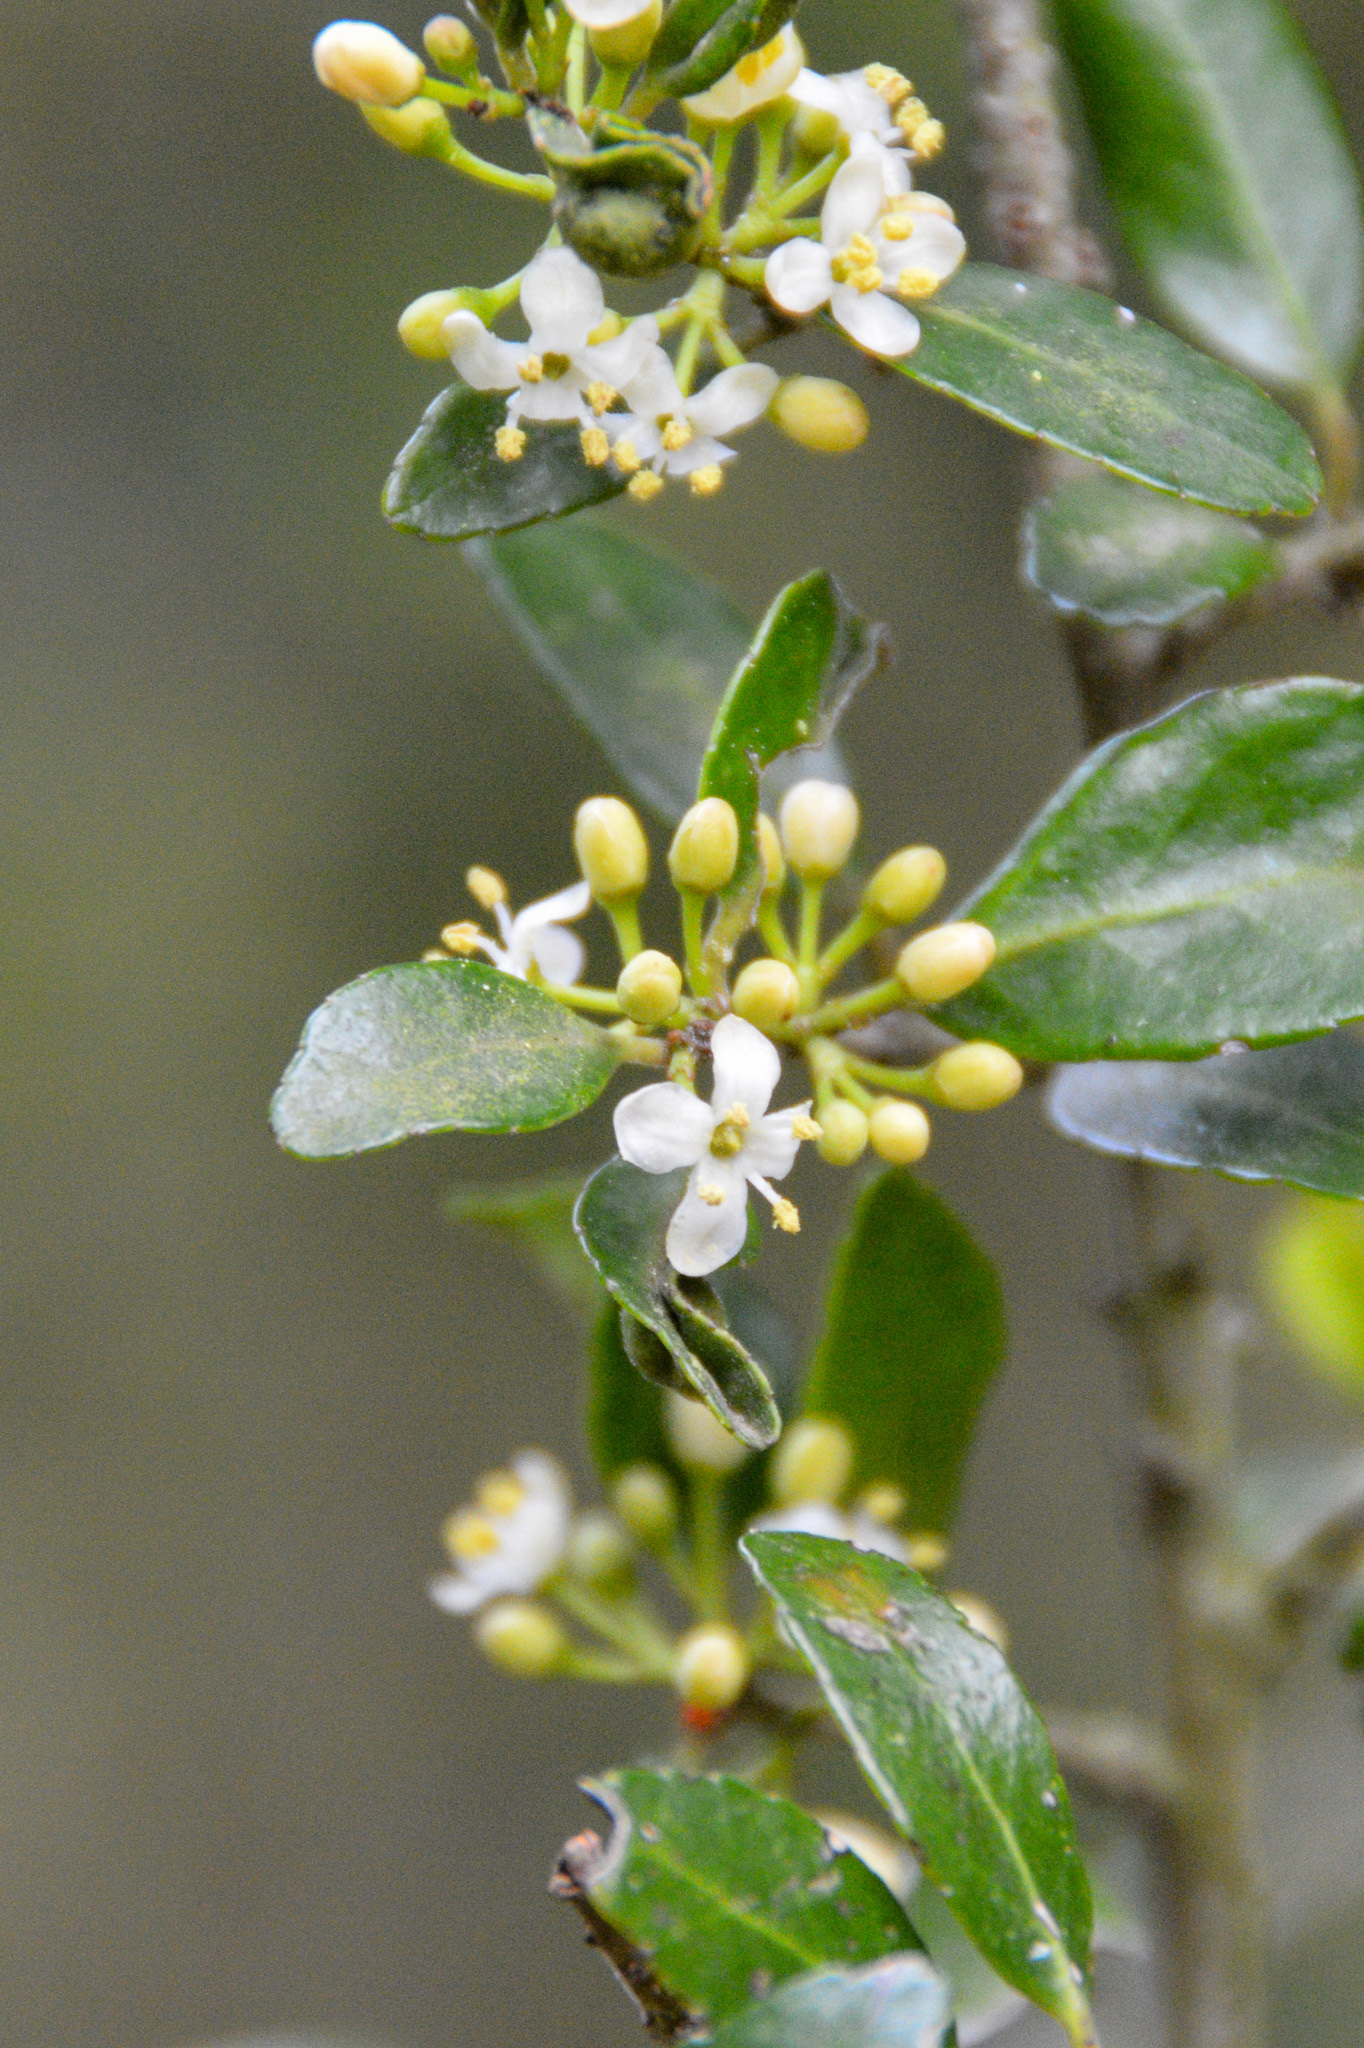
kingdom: Plantae
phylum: Tracheophyta
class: Magnoliopsida
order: Aquifoliales
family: Aquifoliaceae
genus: Ilex
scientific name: Ilex vomitoria
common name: Yaupon holly
